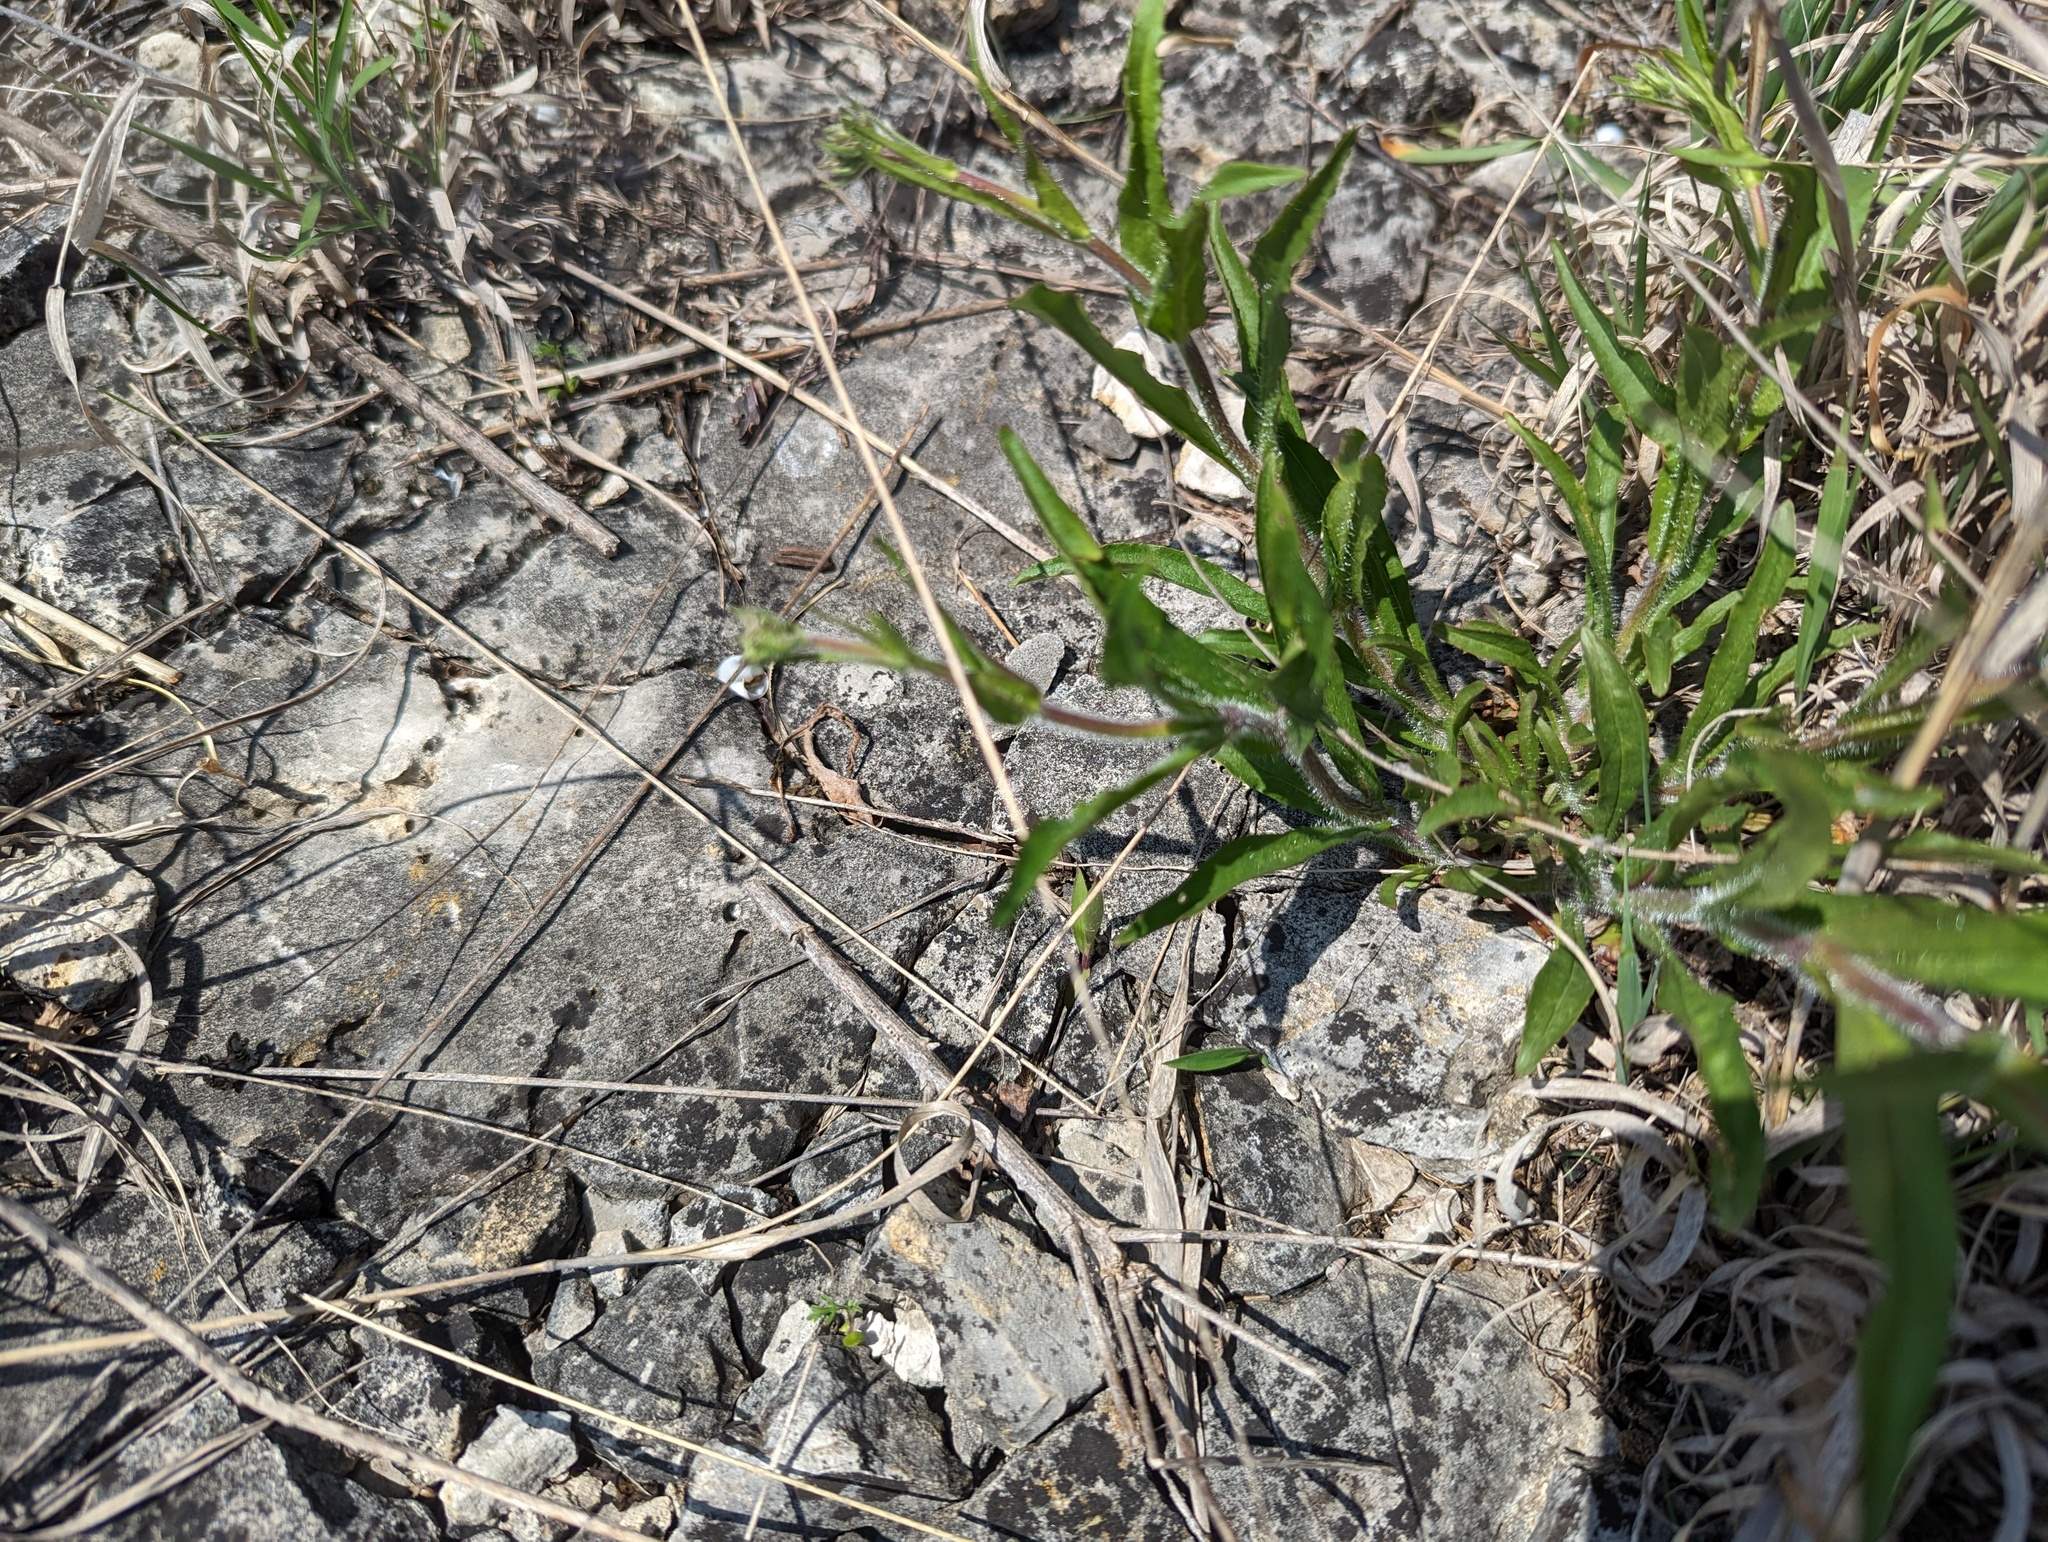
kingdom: Plantae
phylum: Tracheophyta
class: Magnoliopsida
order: Lamiales
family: Plantaginaceae
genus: Penstemon
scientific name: Penstemon hirsutus
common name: Hairy beardtongue
